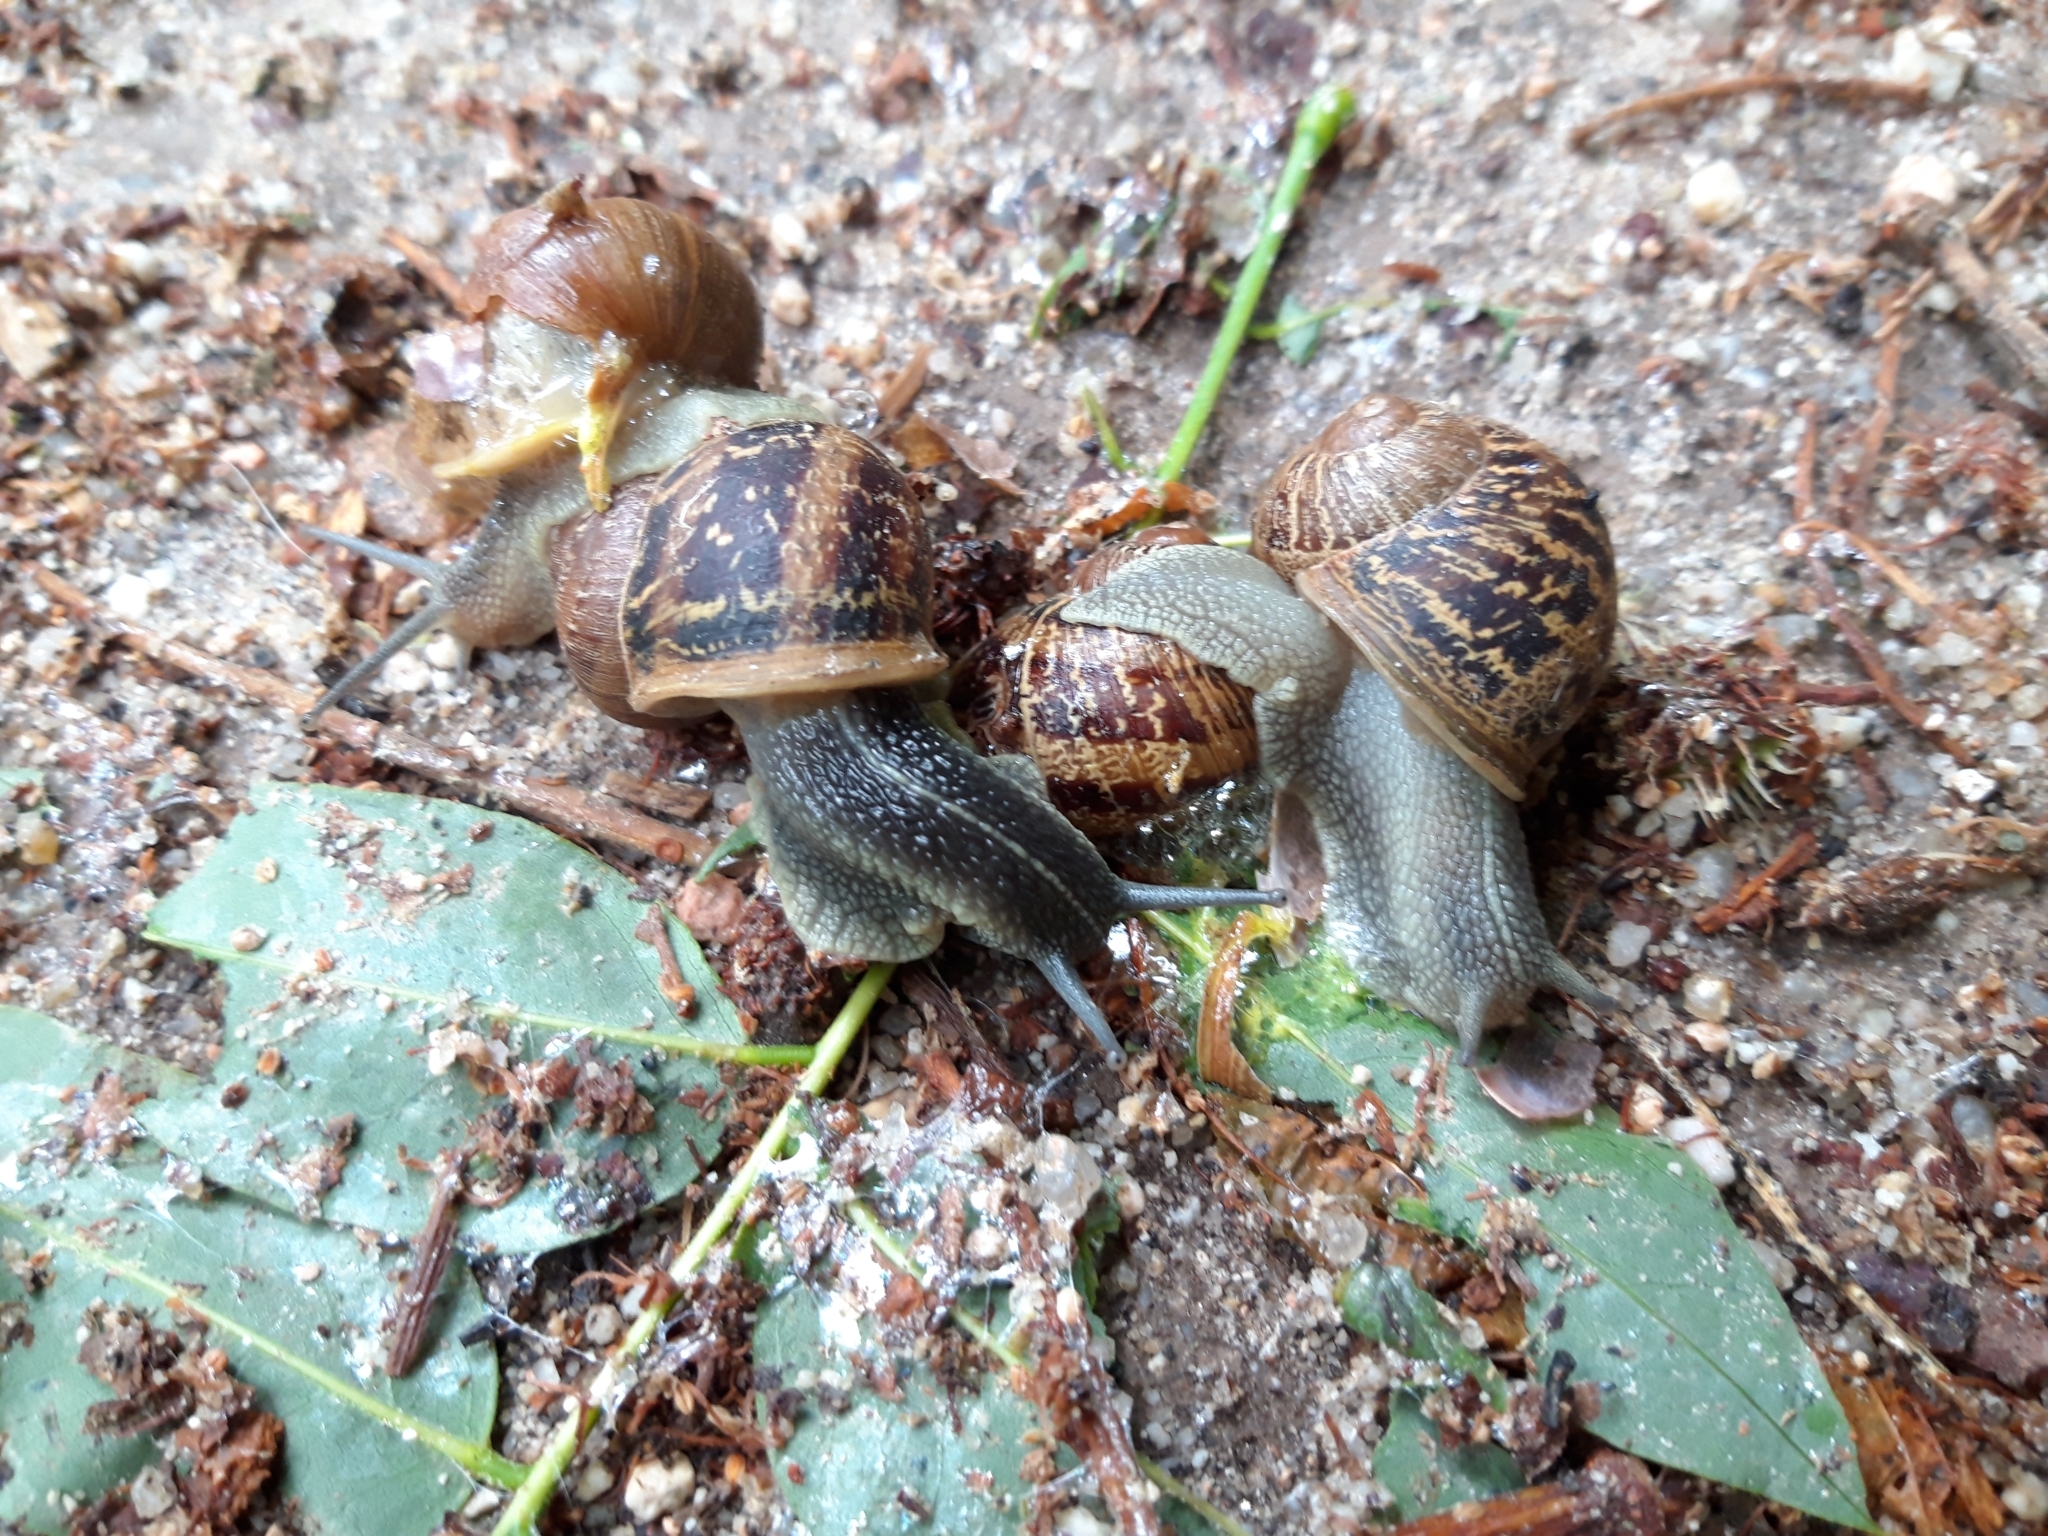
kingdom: Animalia
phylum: Mollusca
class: Gastropoda
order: Stylommatophora
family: Helicidae
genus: Cornu
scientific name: Cornu aspersum
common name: Brown garden snail
